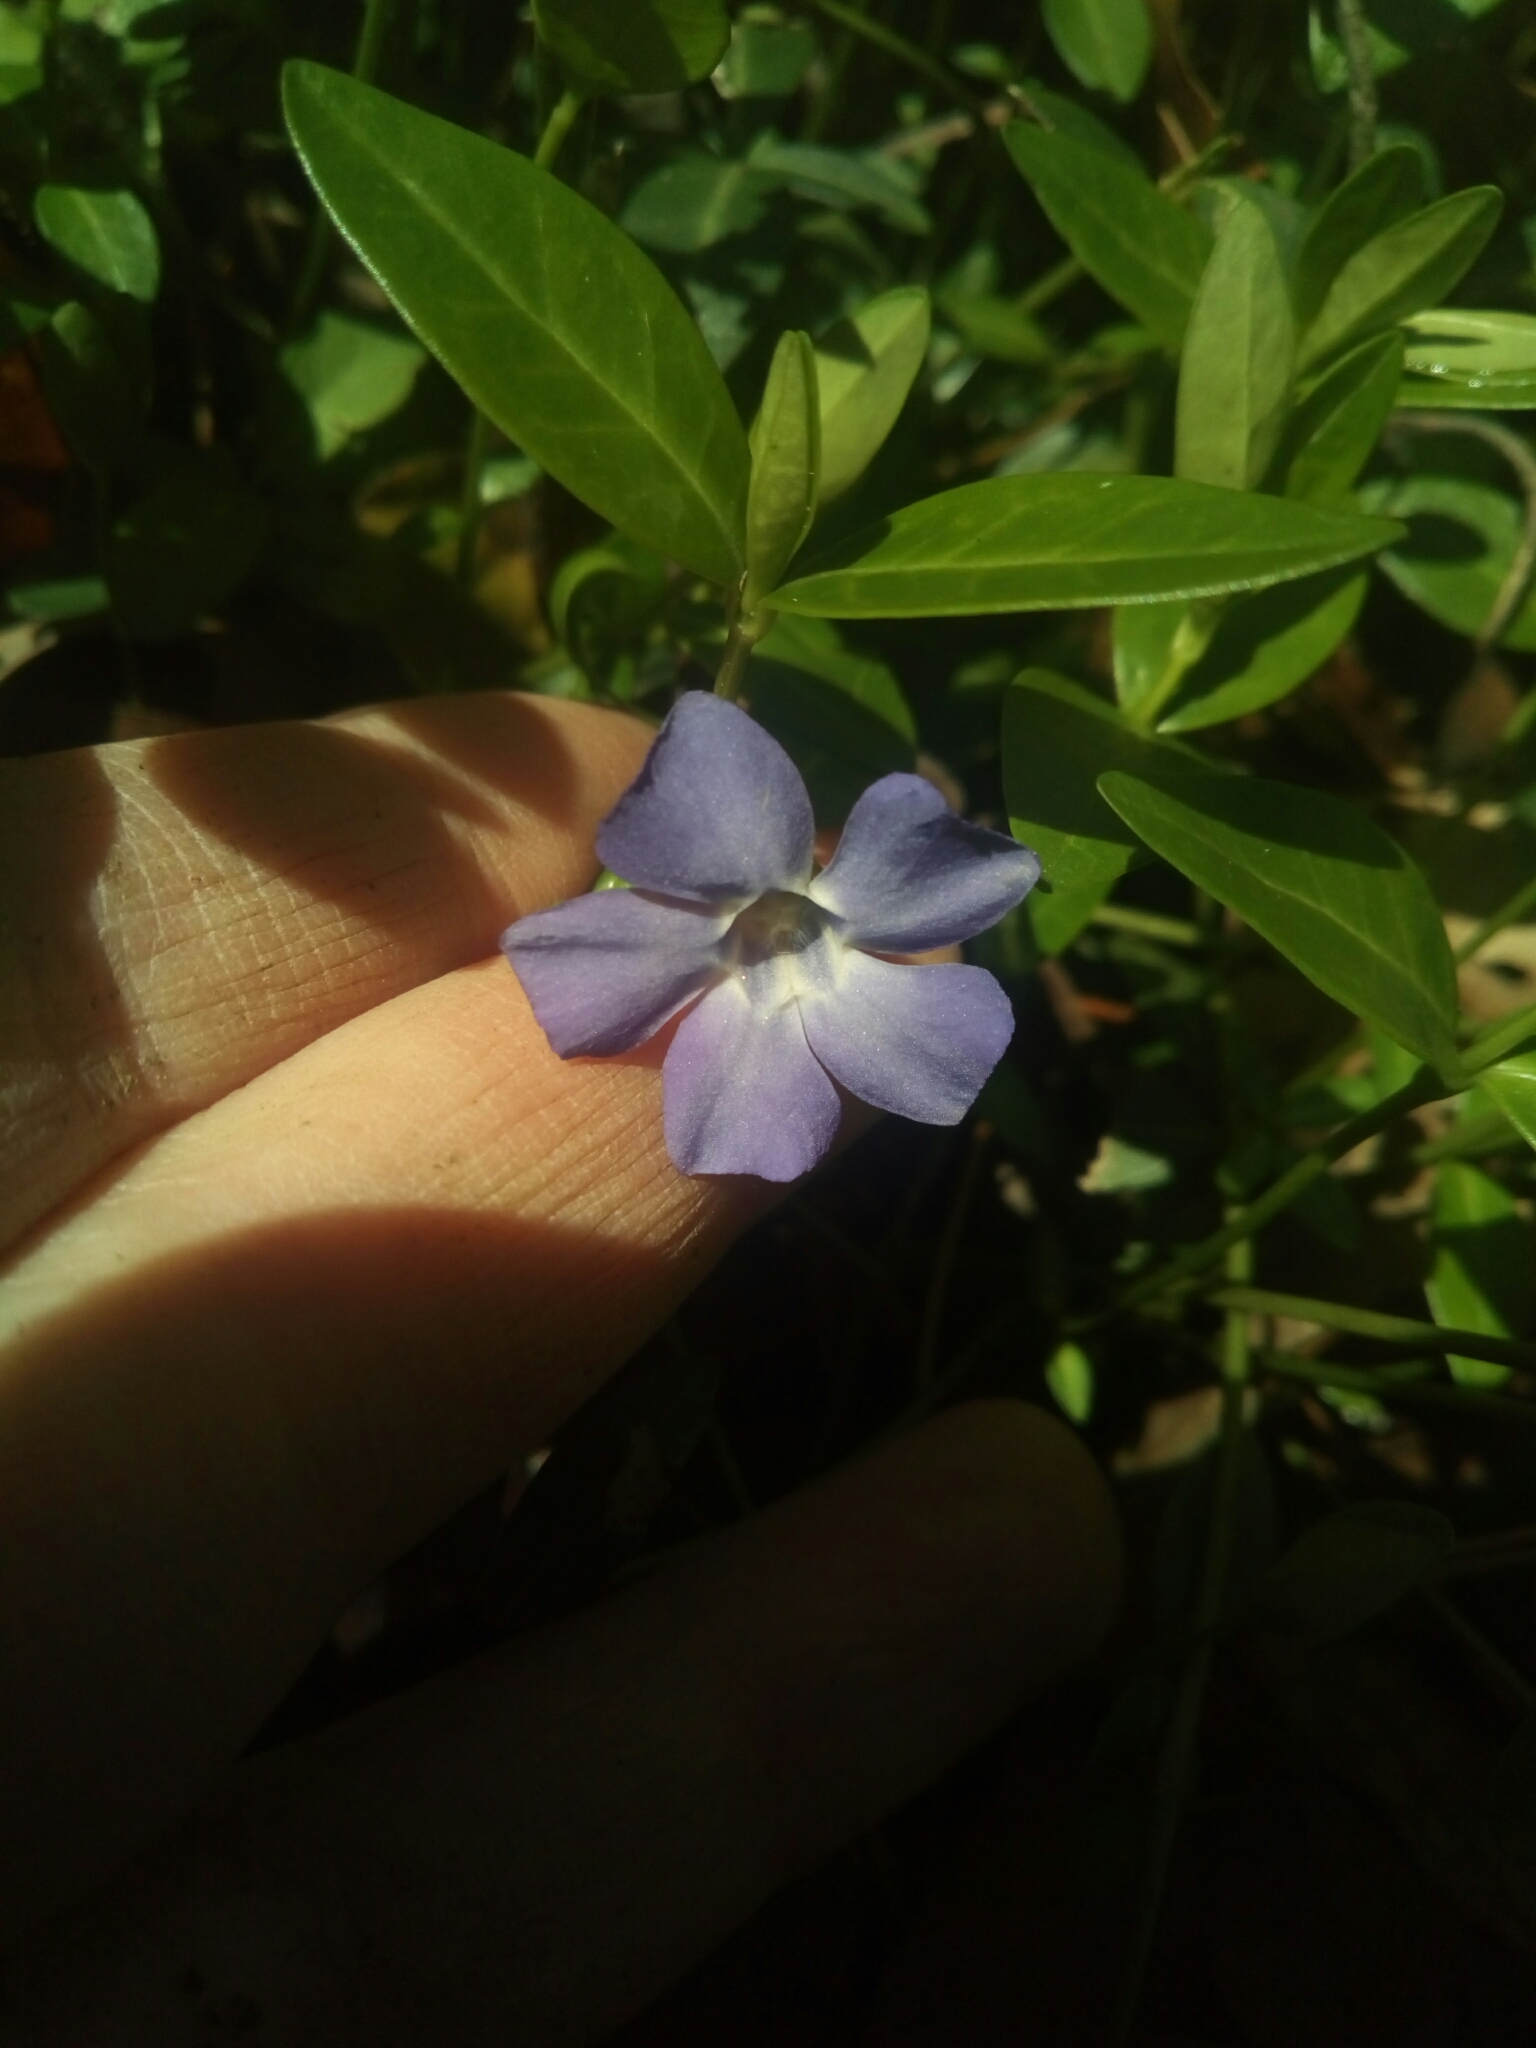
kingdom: Plantae
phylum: Tracheophyta
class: Magnoliopsida
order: Gentianales
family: Apocynaceae
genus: Vinca
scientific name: Vinca minor
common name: Lesser periwinkle
